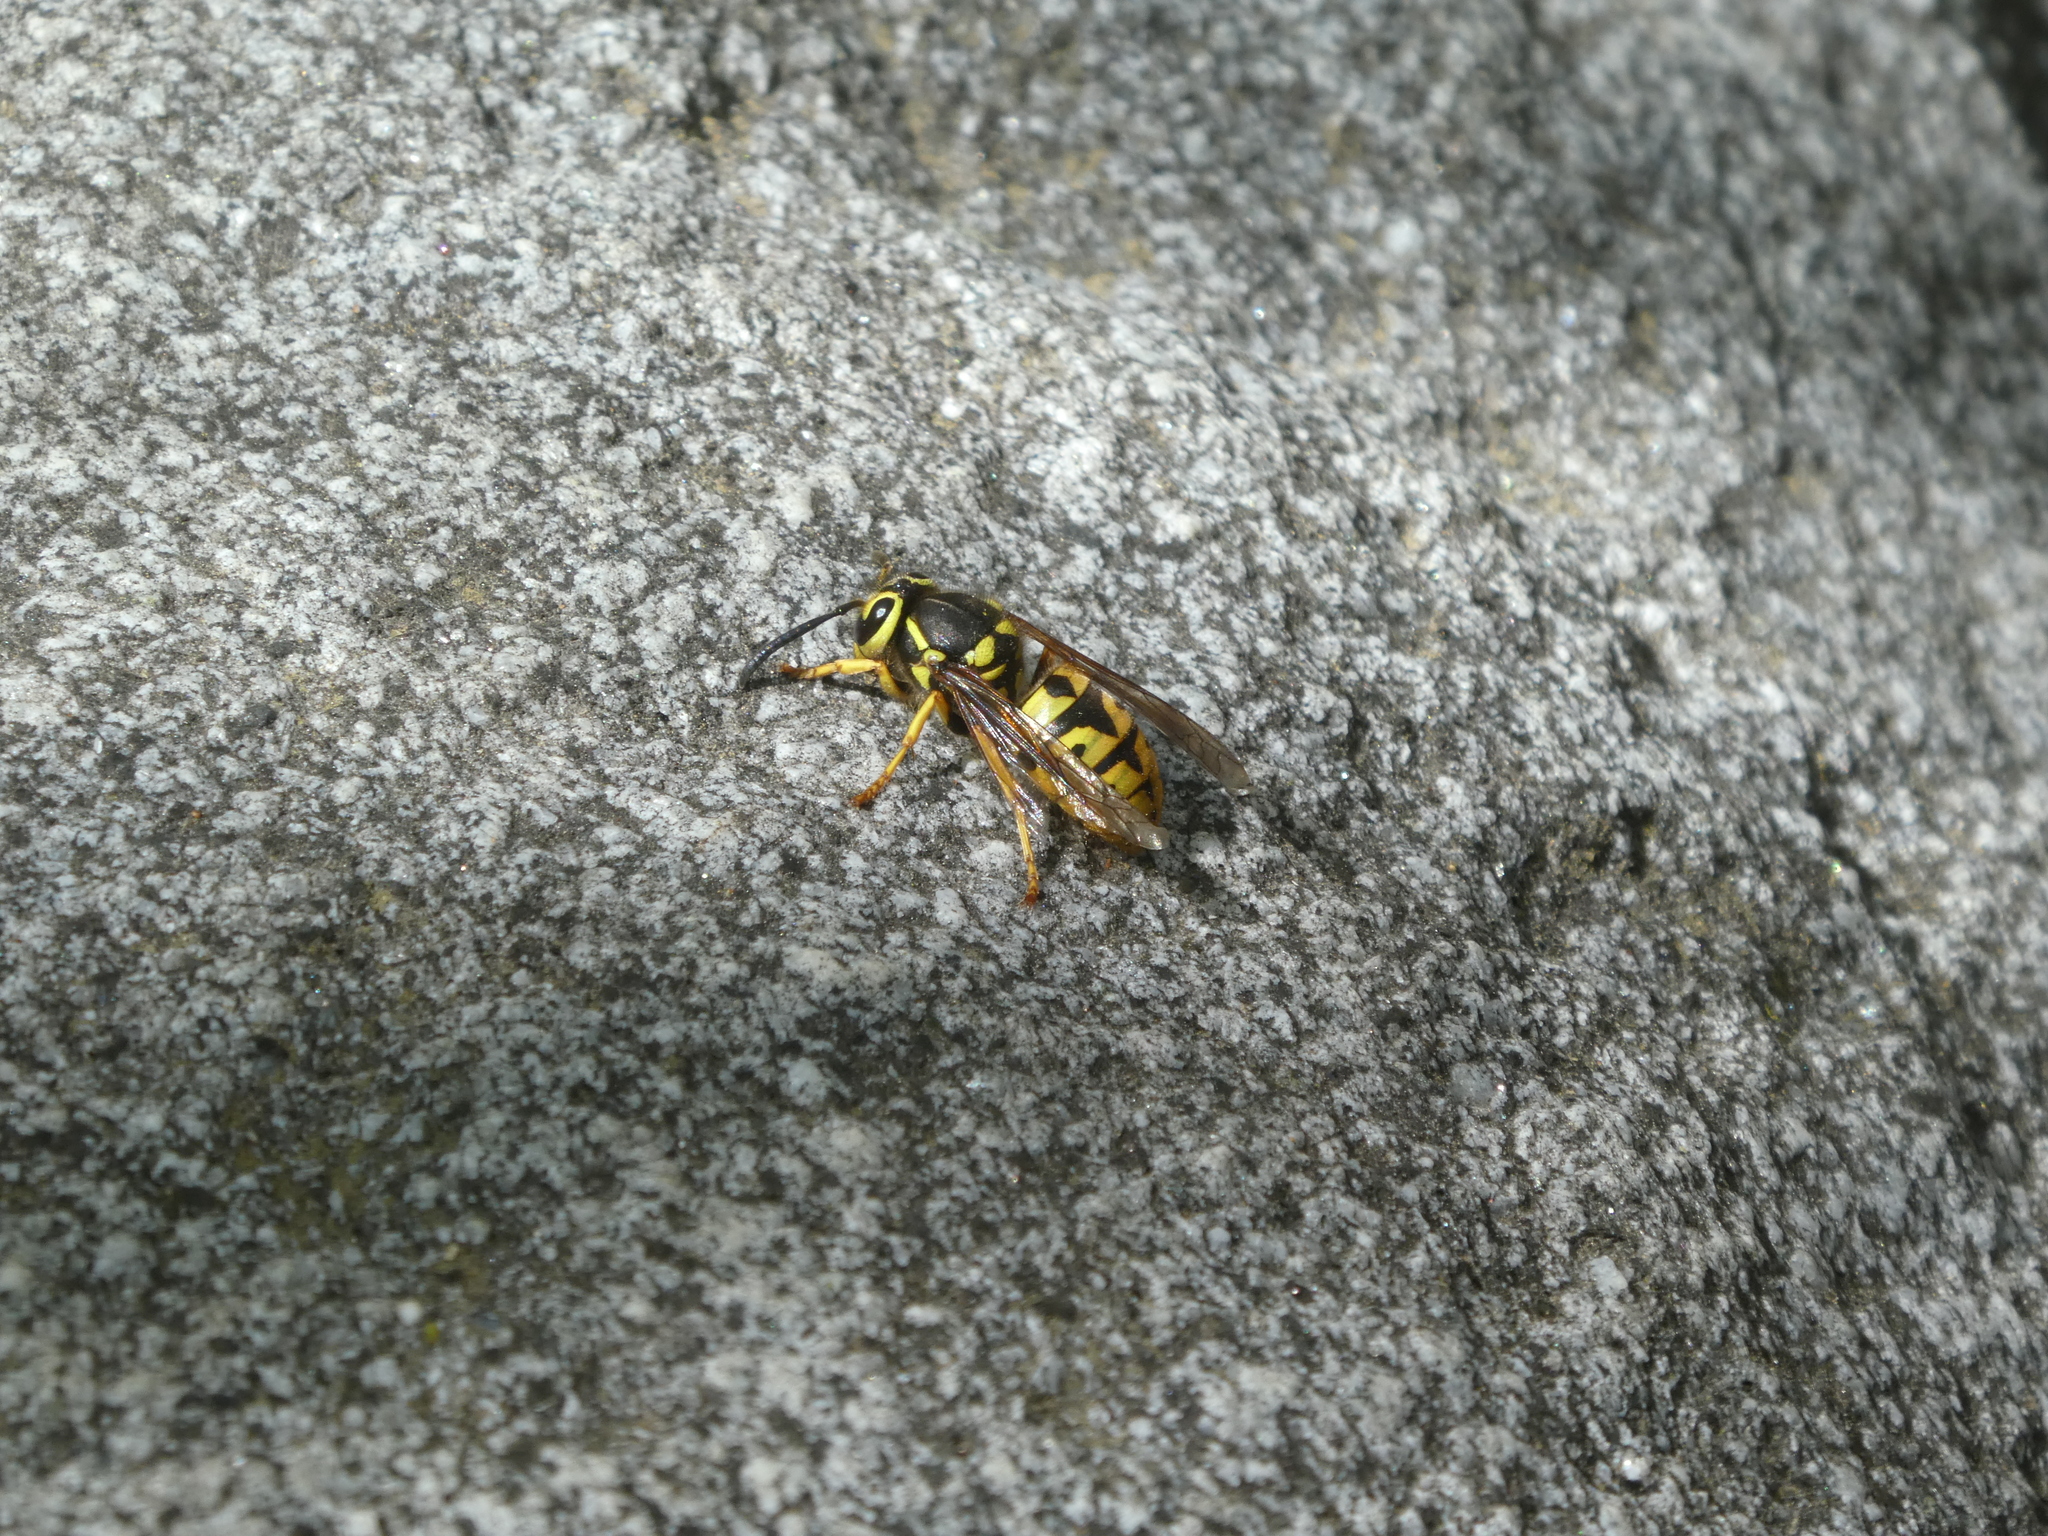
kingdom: Animalia
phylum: Arthropoda
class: Insecta
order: Hymenoptera
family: Vespidae
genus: Vespula
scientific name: Vespula pensylvanica
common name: Western yellowjacket
